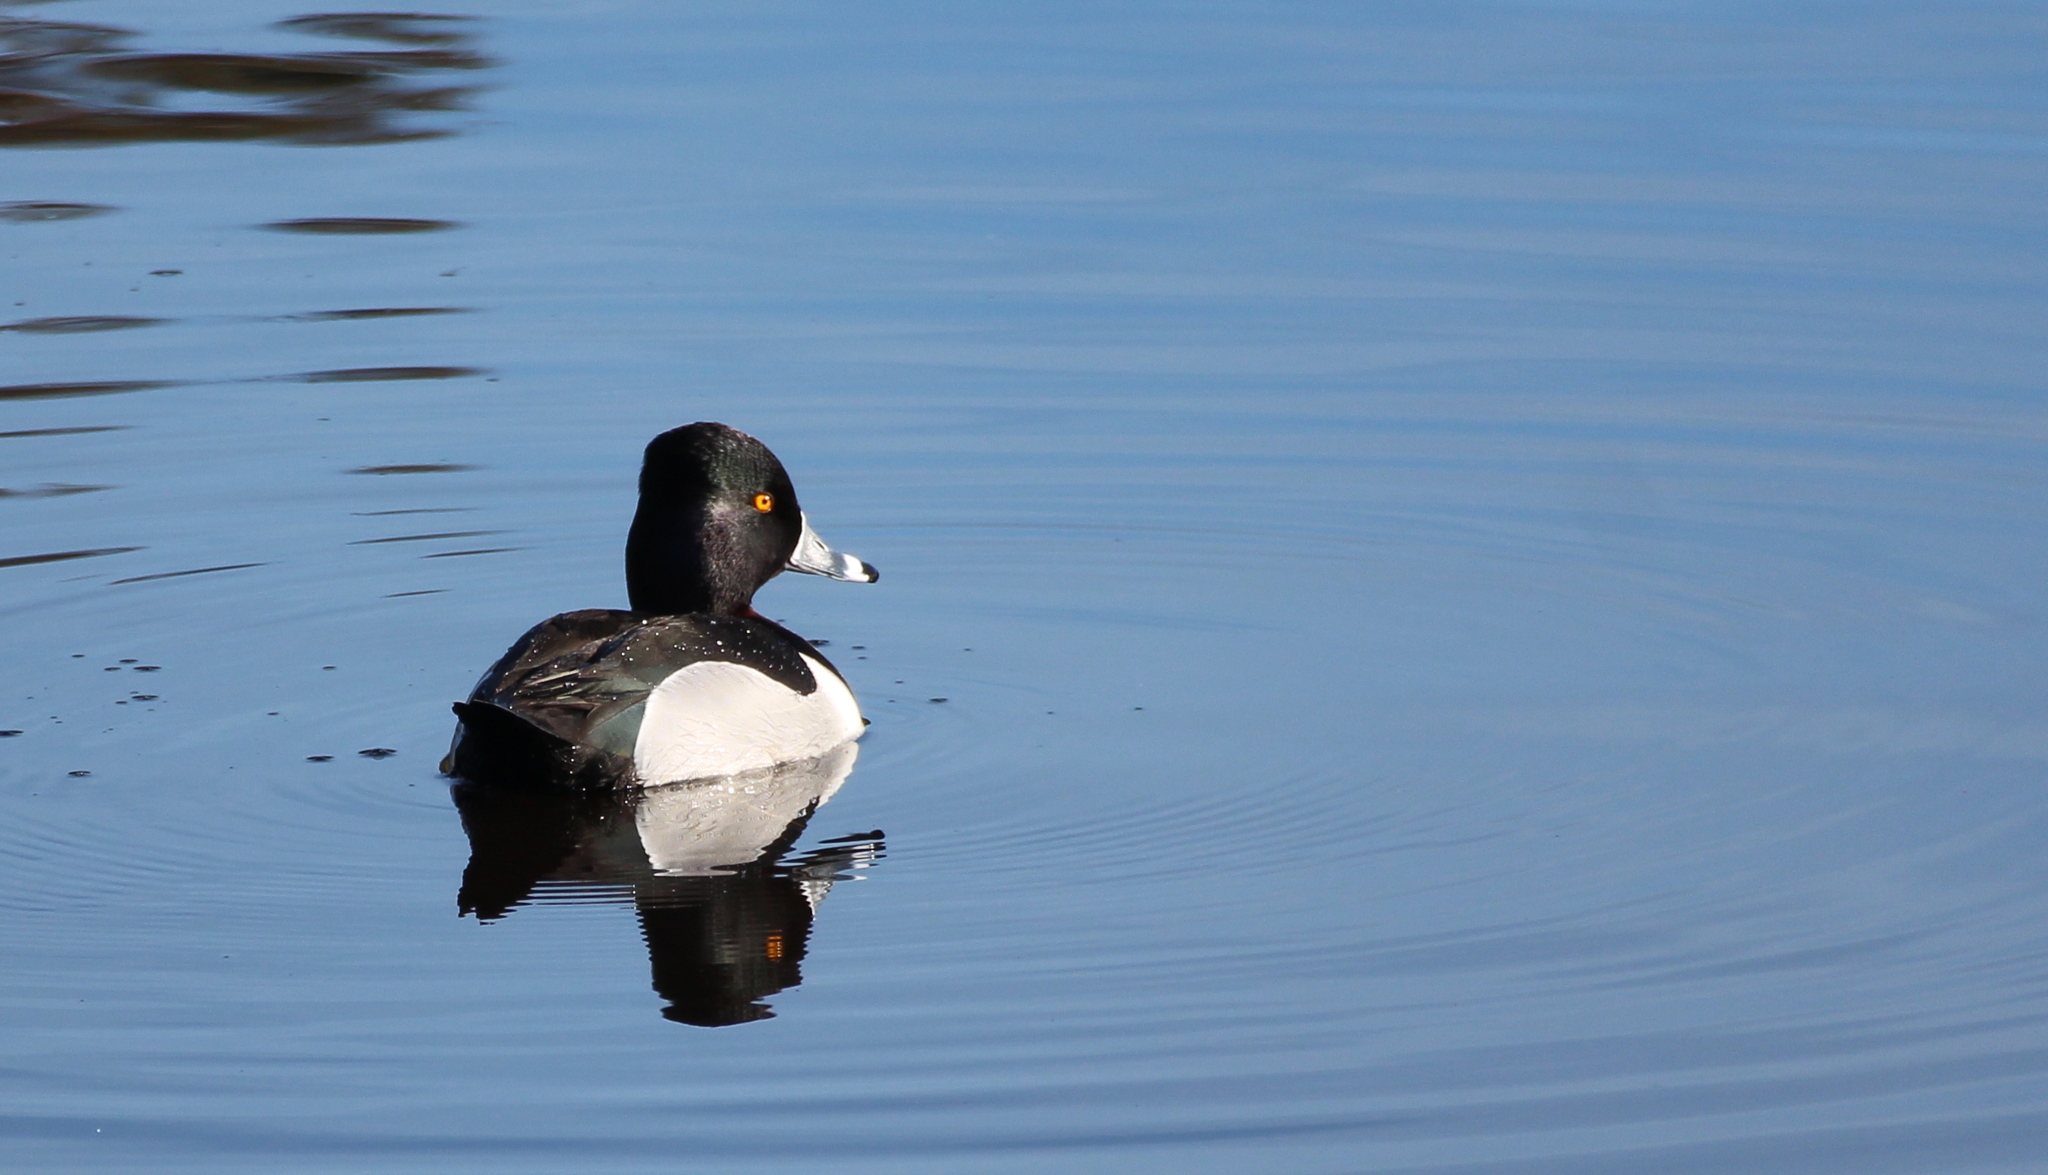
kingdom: Animalia
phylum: Chordata
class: Aves
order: Anseriformes
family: Anatidae
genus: Aythya
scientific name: Aythya collaris
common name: Ring-necked duck
